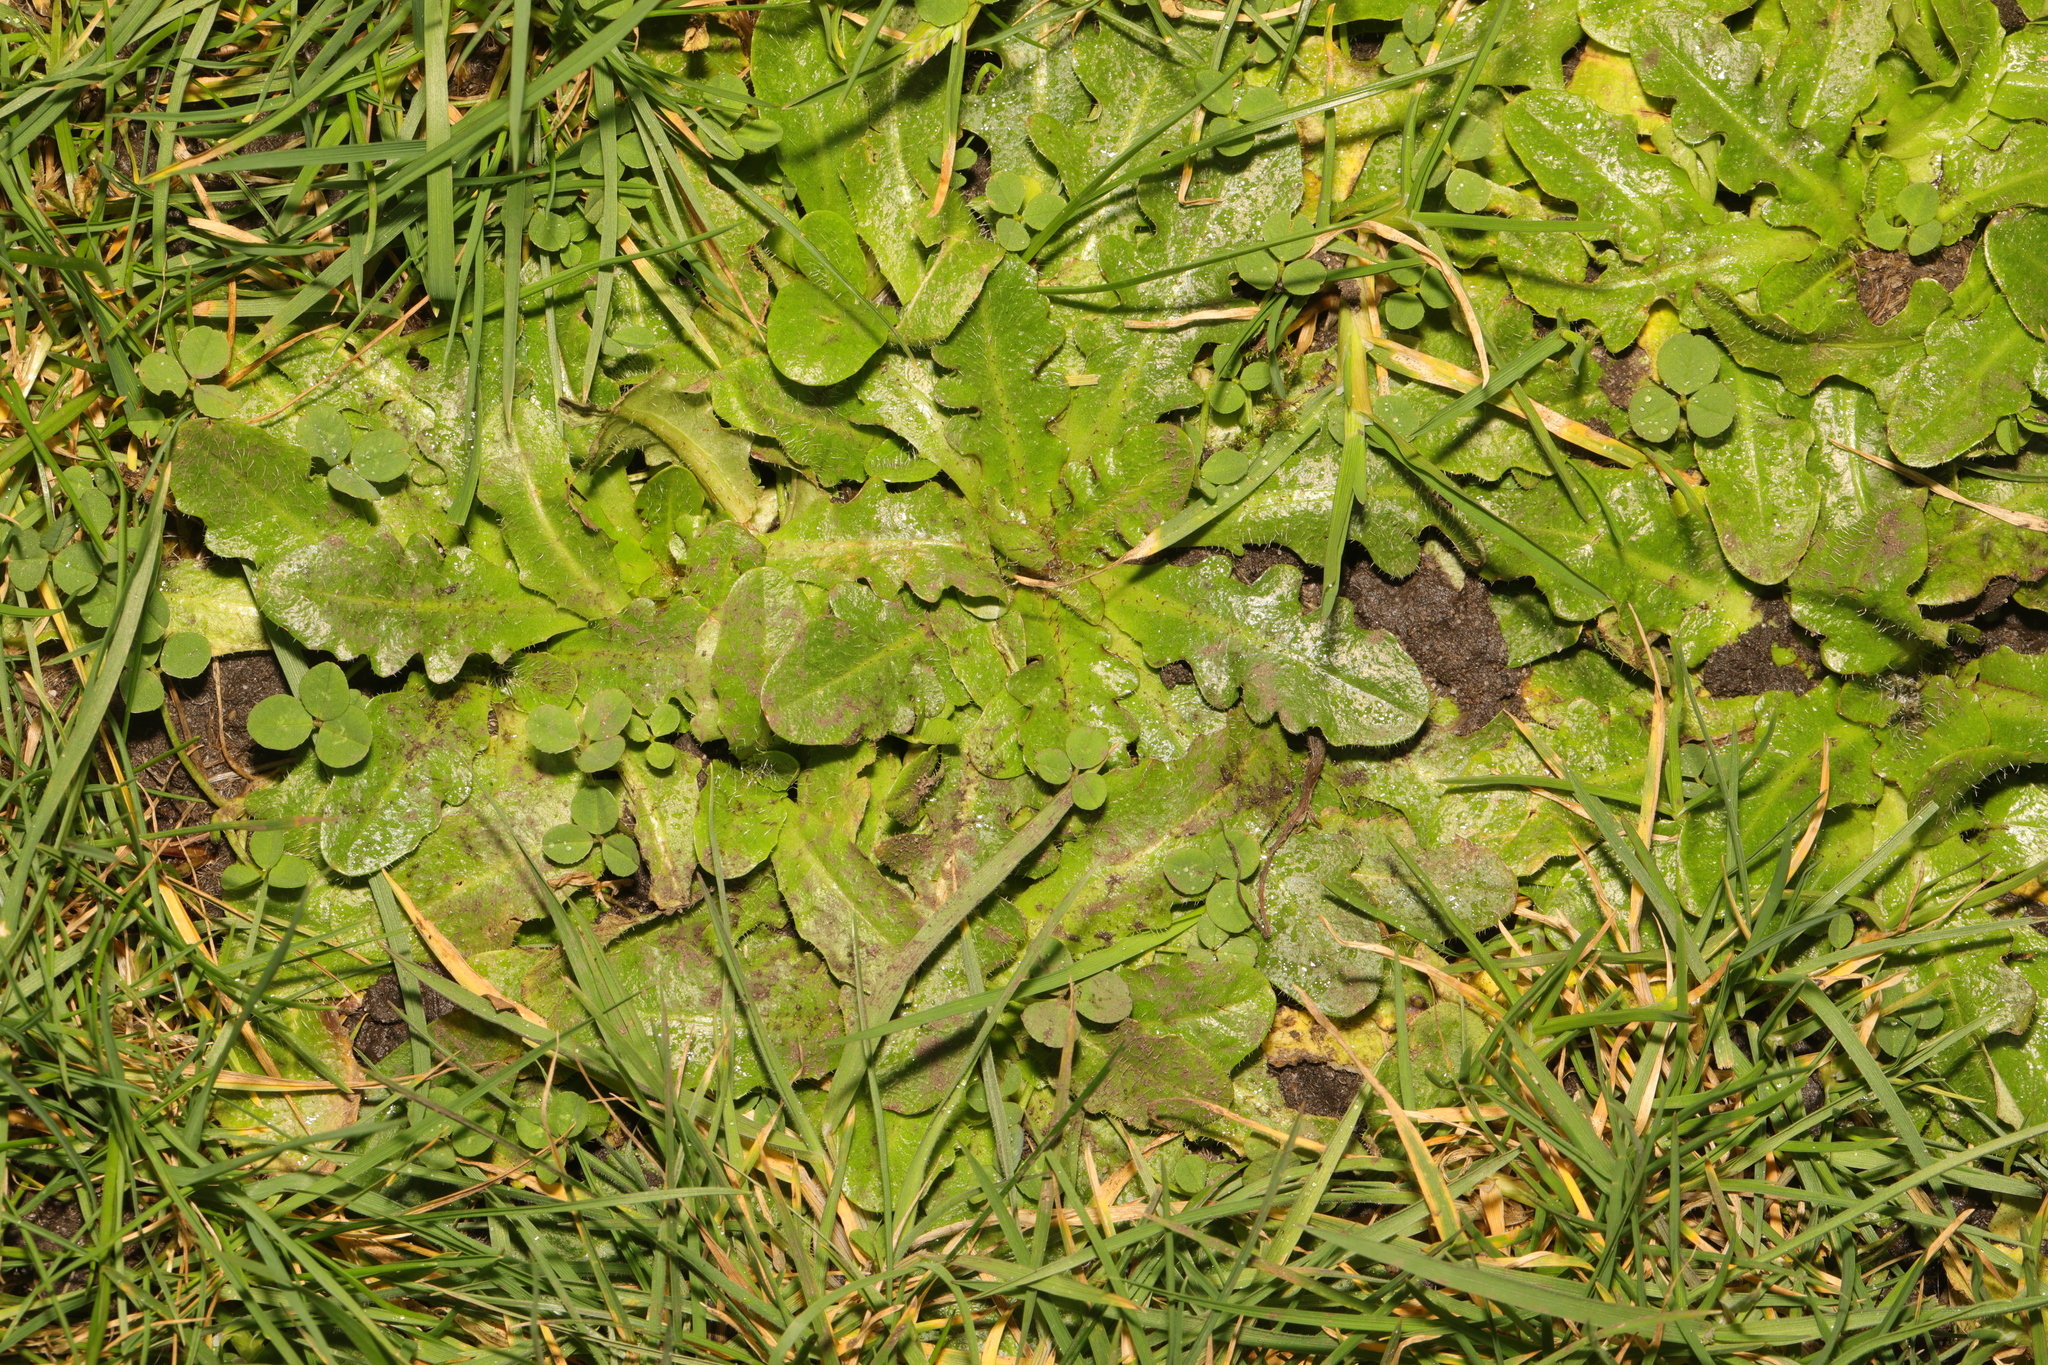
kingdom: Plantae
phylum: Tracheophyta
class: Magnoliopsida
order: Asterales
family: Asteraceae
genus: Hypochaeris
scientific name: Hypochaeris radicata
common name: Flatweed
